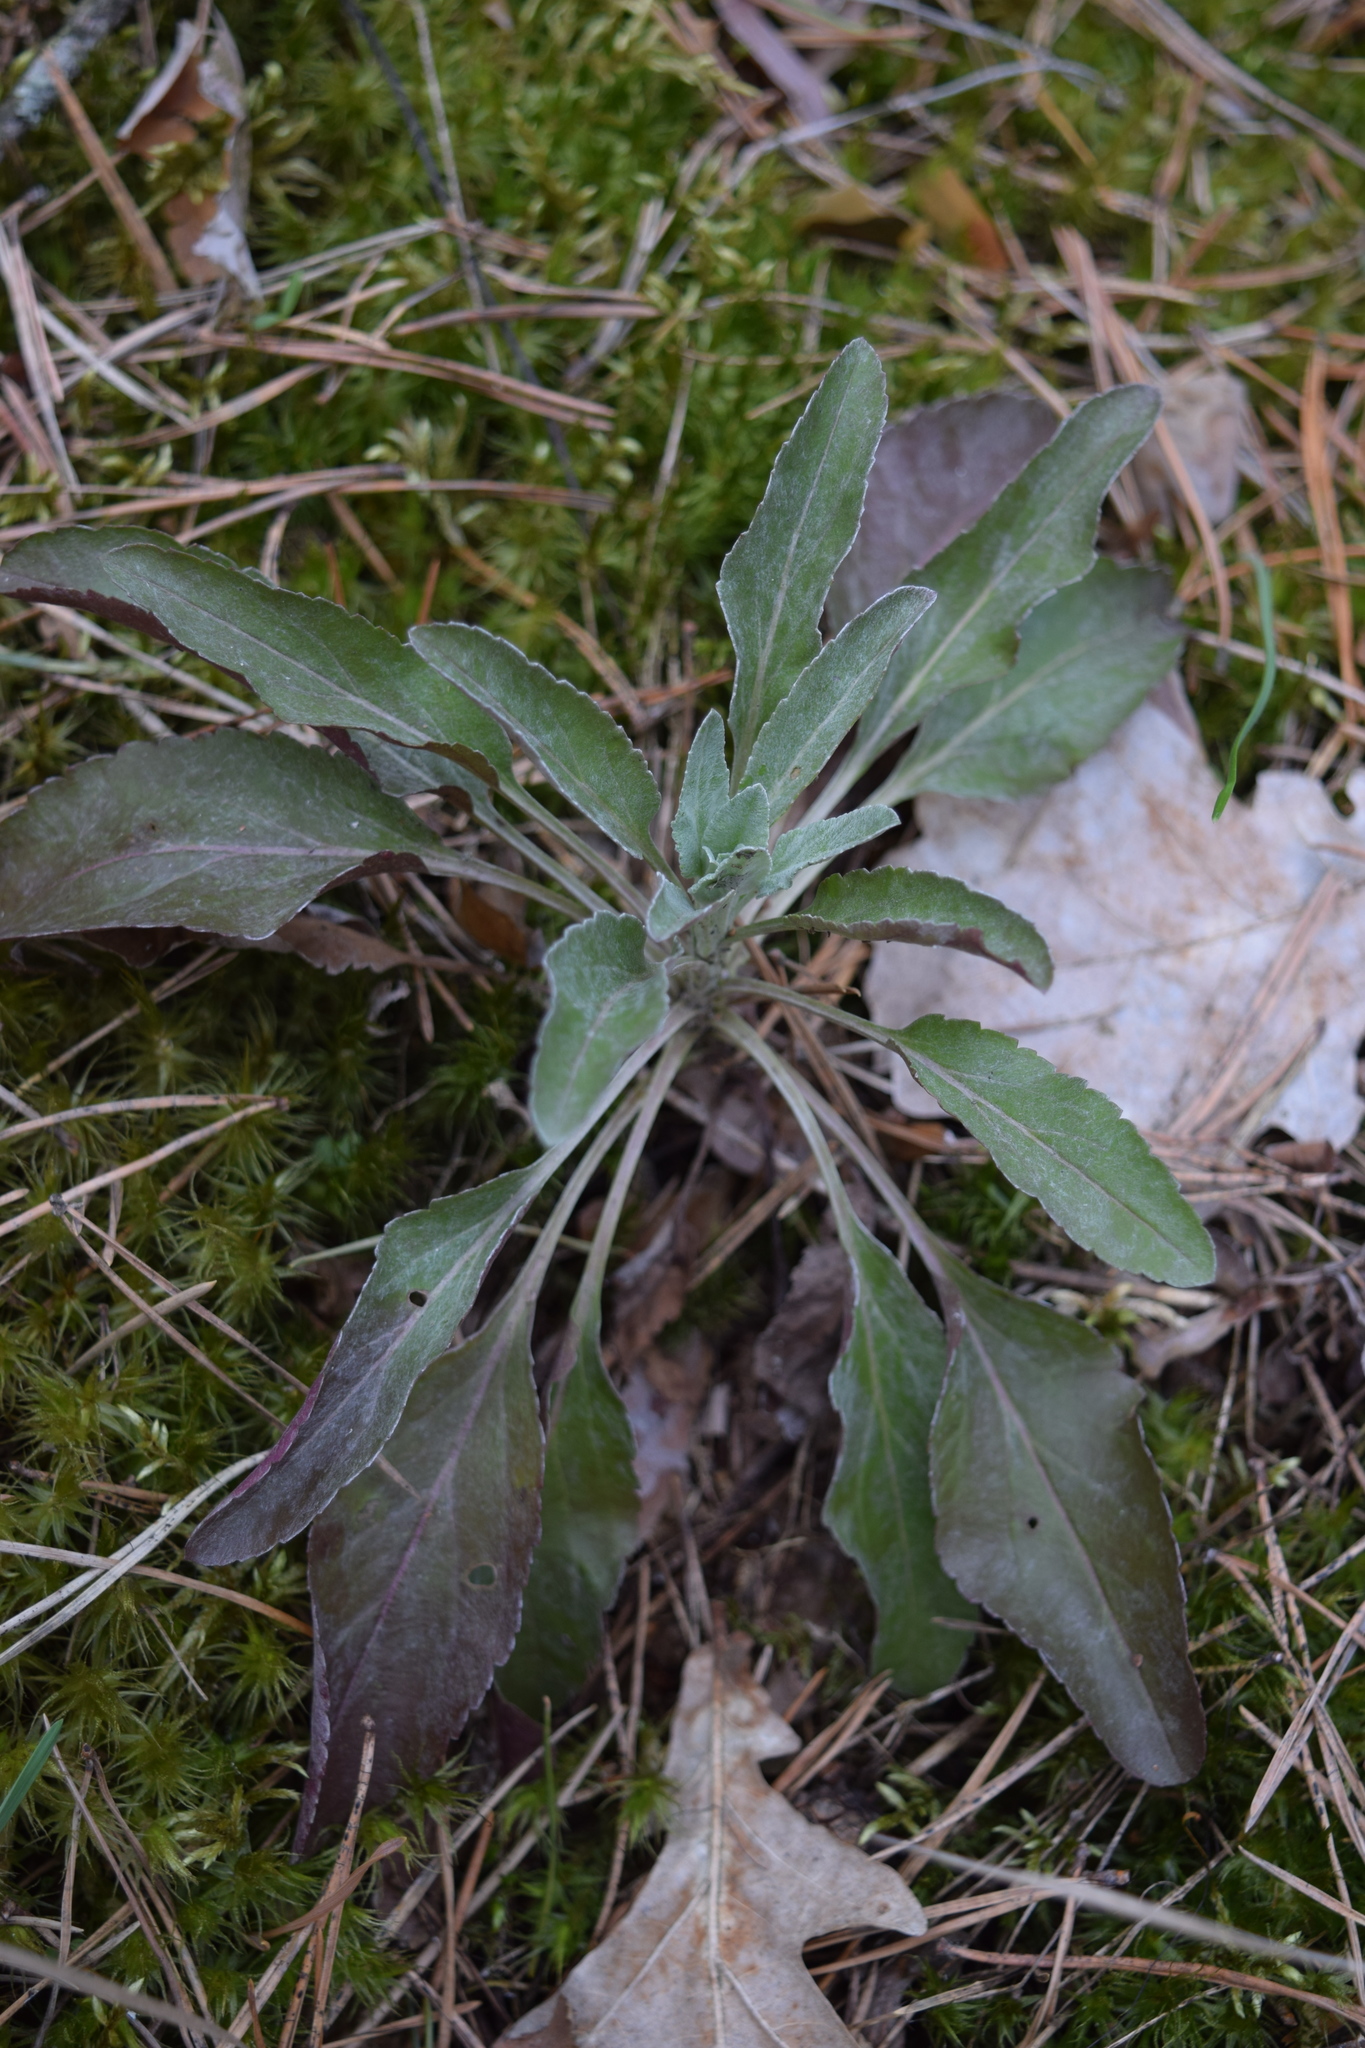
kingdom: Plantae
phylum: Tracheophyta
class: Magnoliopsida
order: Lamiales
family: Plantaginaceae
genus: Veronica
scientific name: Veronica incana
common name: Silver speedwell
